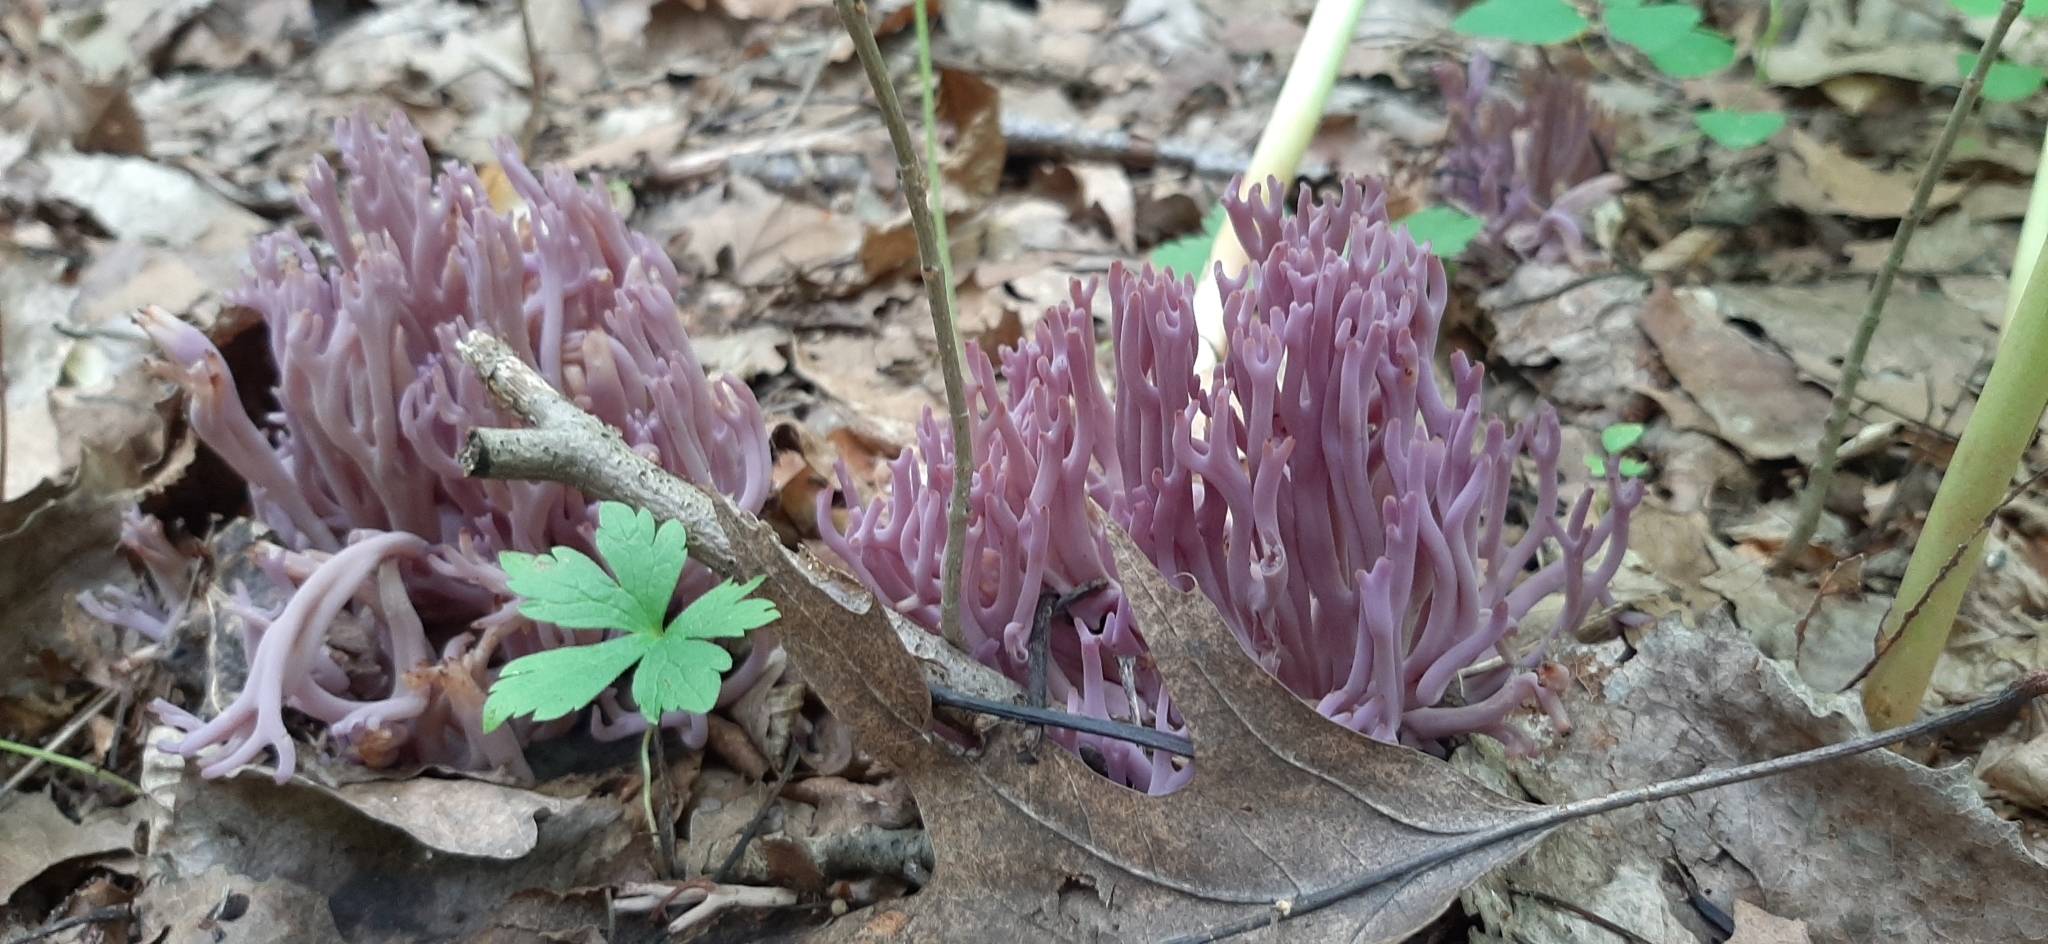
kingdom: Fungi
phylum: Basidiomycota
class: Agaricomycetes
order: Agaricales
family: Clavariaceae
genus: Clavaria
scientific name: Clavaria zollingeri
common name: Violet coral
